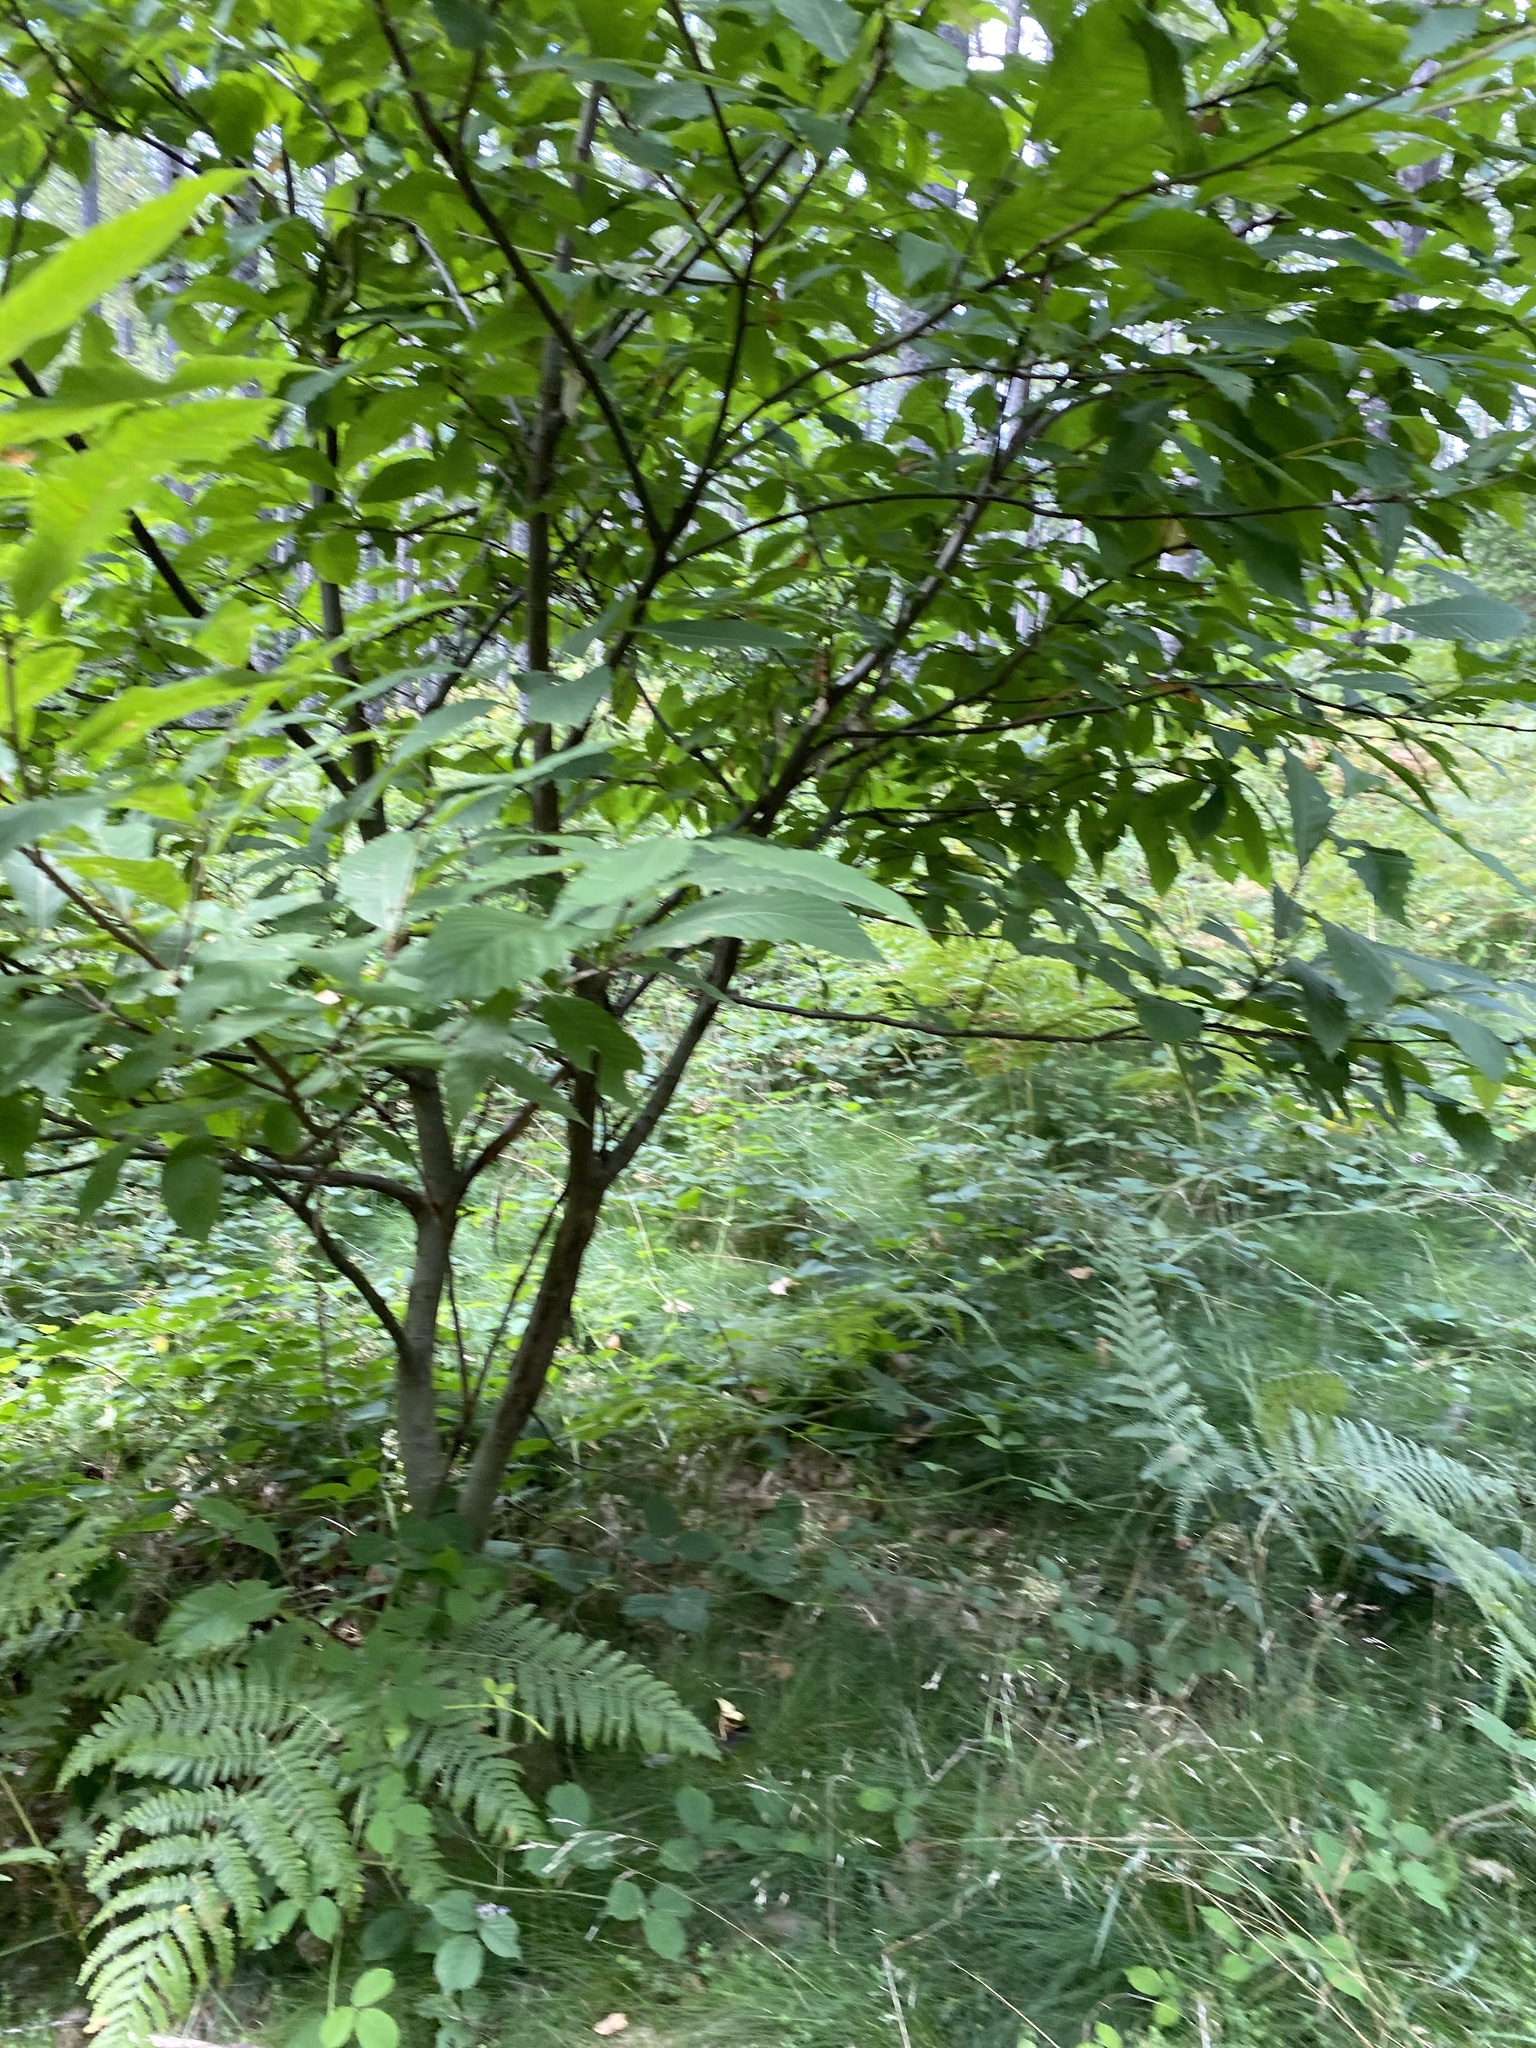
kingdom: Plantae
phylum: Tracheophyta
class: Magnoliopsida
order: Fagales
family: Fagaceae
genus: Castanea
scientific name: Castanea sativa
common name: Sweet chestnut
